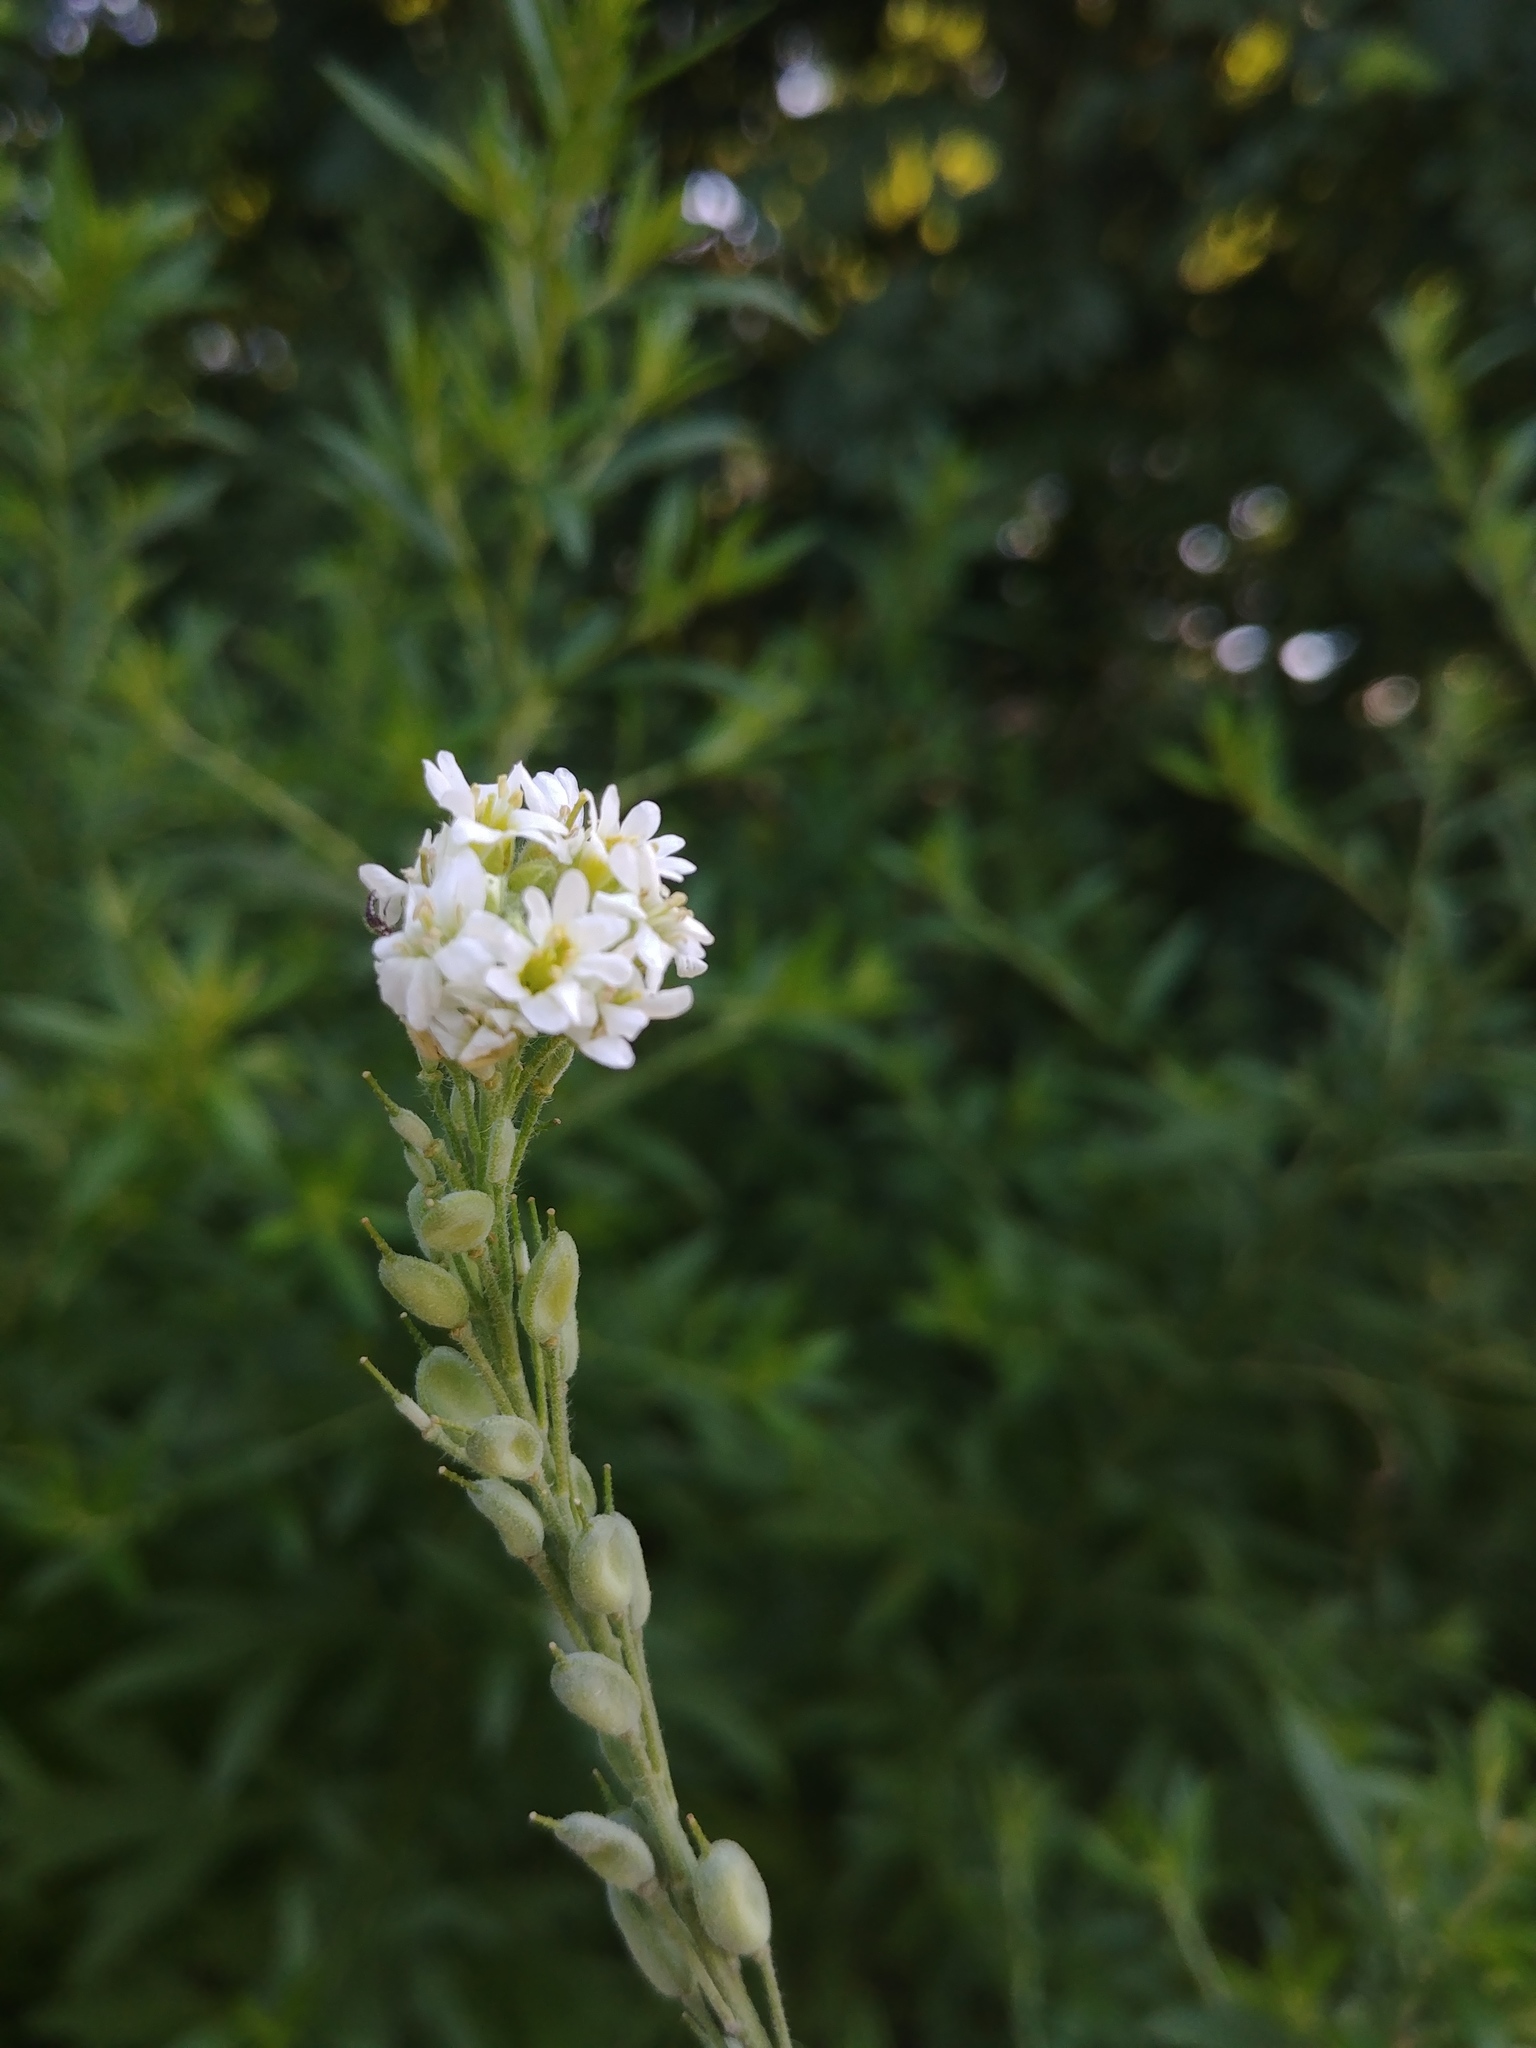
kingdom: Plantae
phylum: Tracheophyta
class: Magnoliopsida
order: Brassicales
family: Brassicaceae
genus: Berteroa
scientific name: Berteroa incana
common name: Hoary alison
